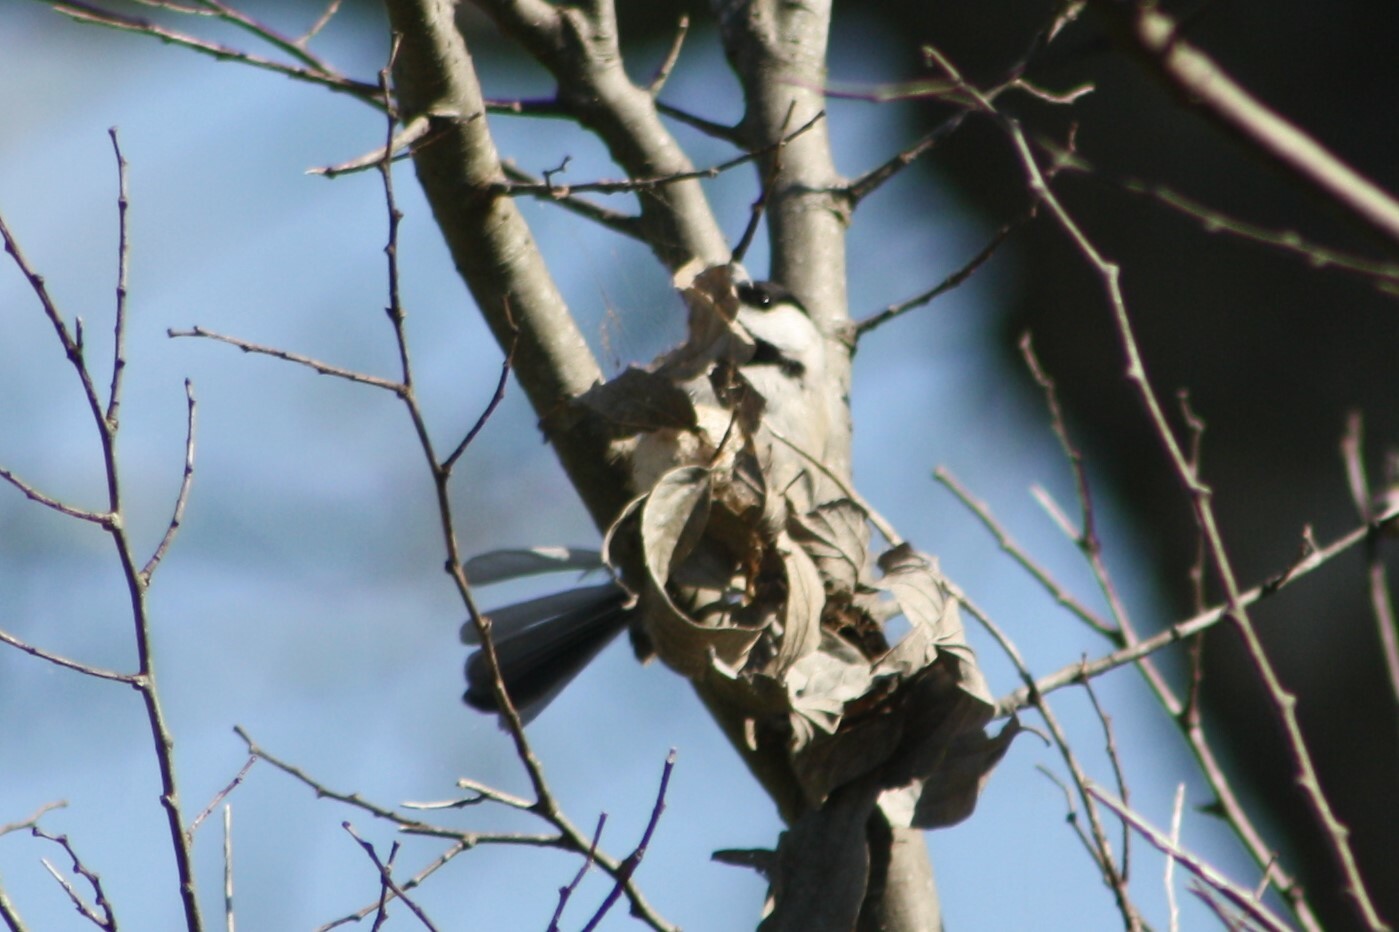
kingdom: Animalia
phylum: Chordata
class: Aves
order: Passeriformes
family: Paridae
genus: Poecile
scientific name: Poecile carolinensis
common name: Carolina chickadee
